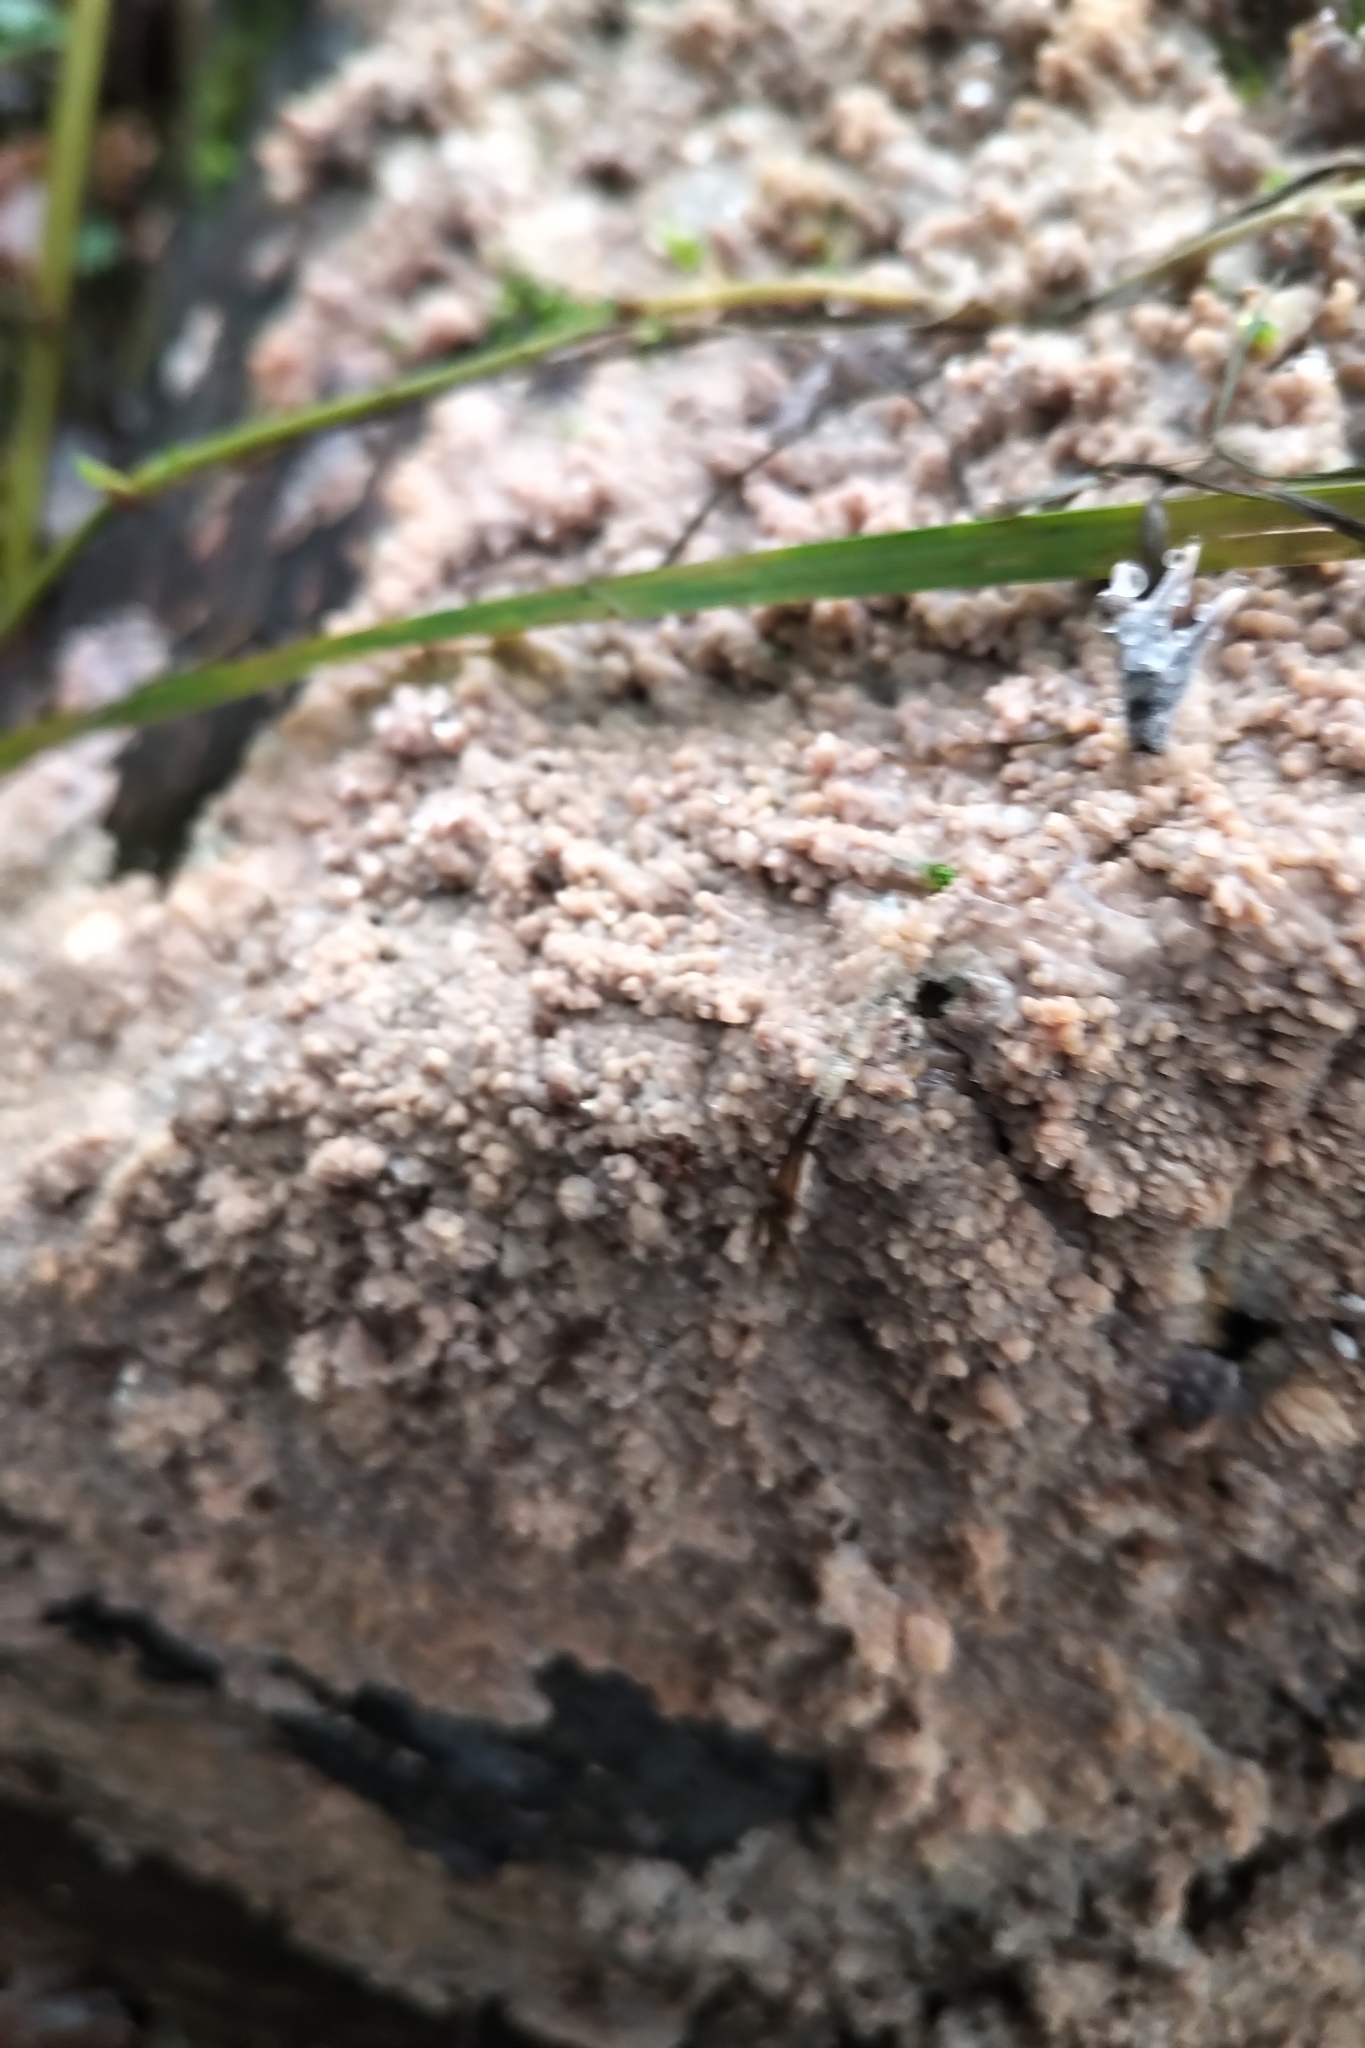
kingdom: Fungi
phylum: Basidiomycota
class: Agaricomycetes
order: Polyporales
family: Meruliaceae
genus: Phlebia
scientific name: Phlebia radiata
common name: Wrinkled crust
